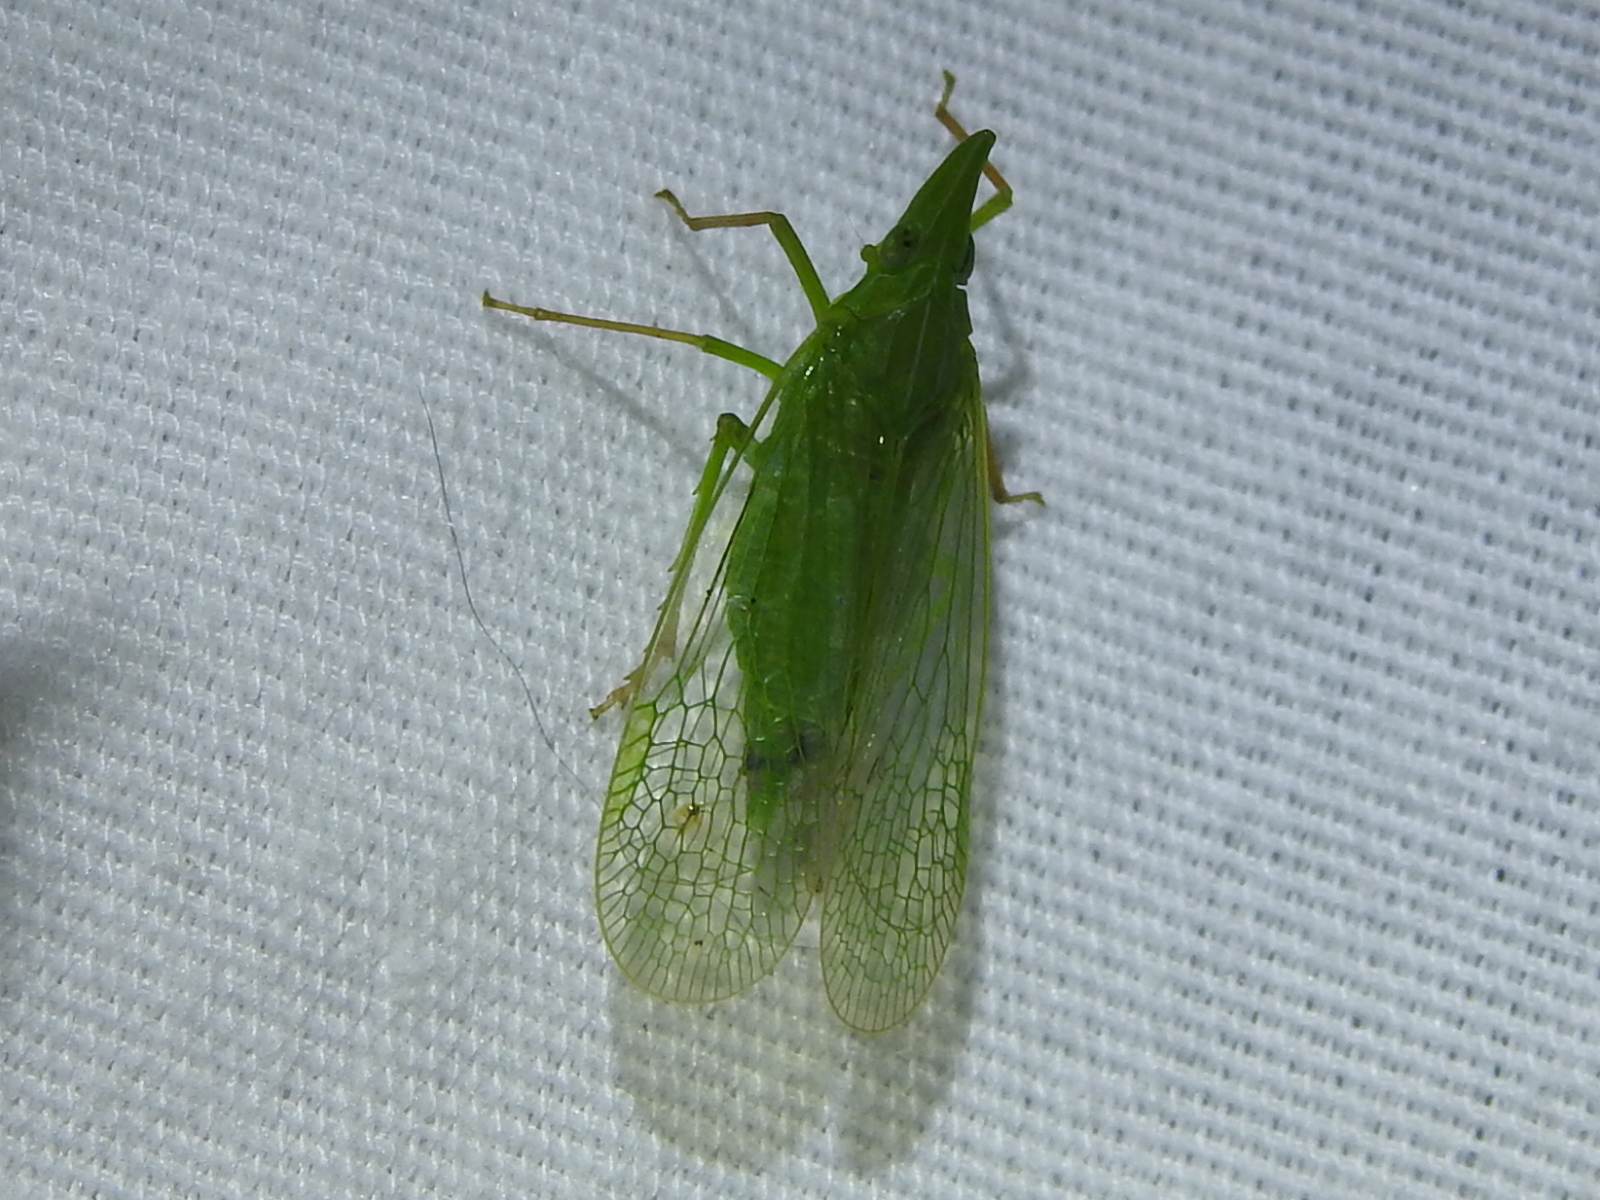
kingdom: Animalia
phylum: Arthropoda
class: Insecta
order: Hemiptera
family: Dictyopharidae
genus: Rhynchomitra
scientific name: Rhynchomitra microrhina
